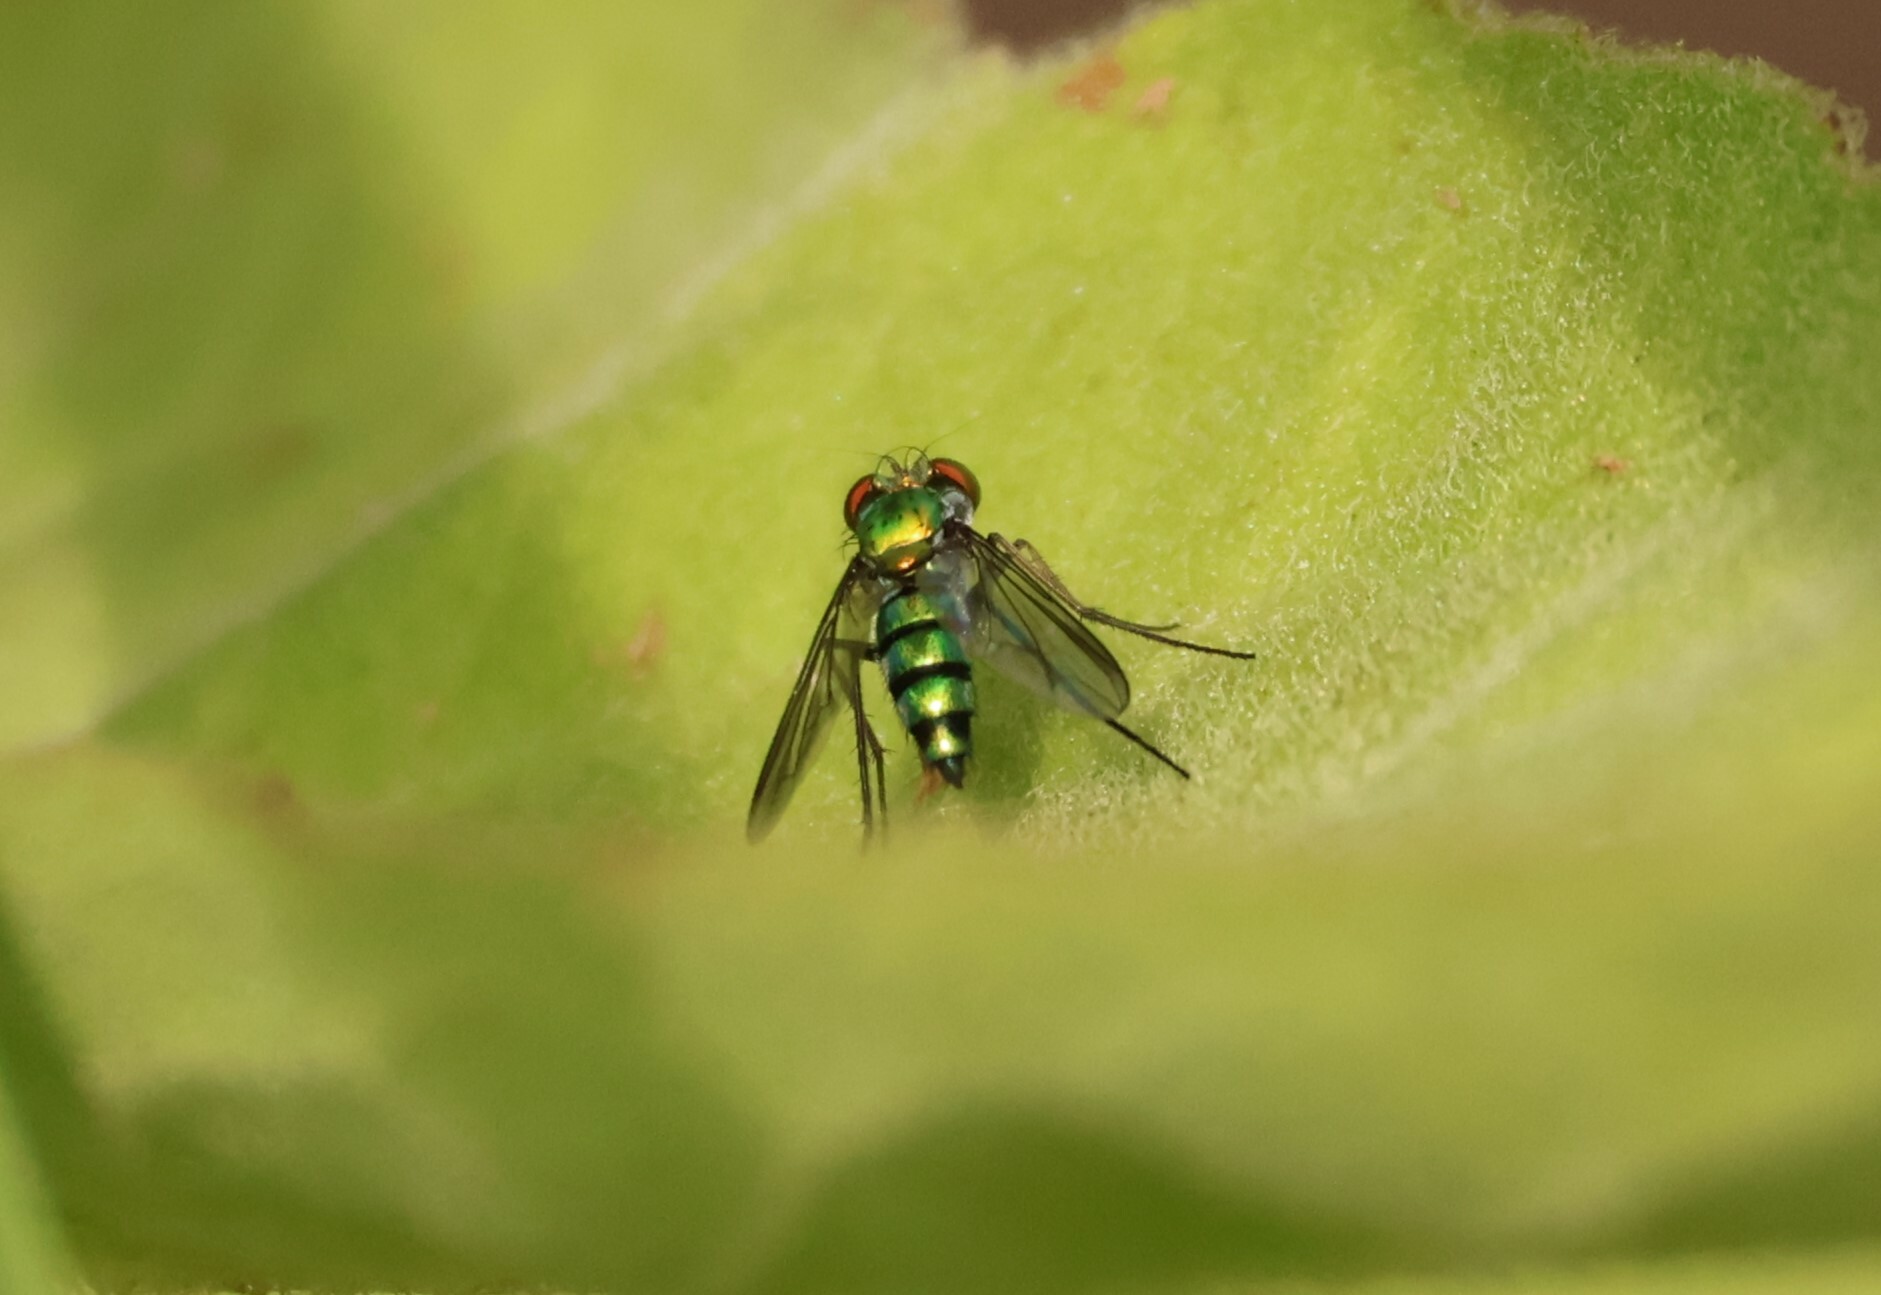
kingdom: Animalia
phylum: Arthropoda
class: Insecta
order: Diptera
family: Dolichopodidae
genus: Condylostylus
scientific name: Condylostylus longicornis
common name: Long-legged fly
